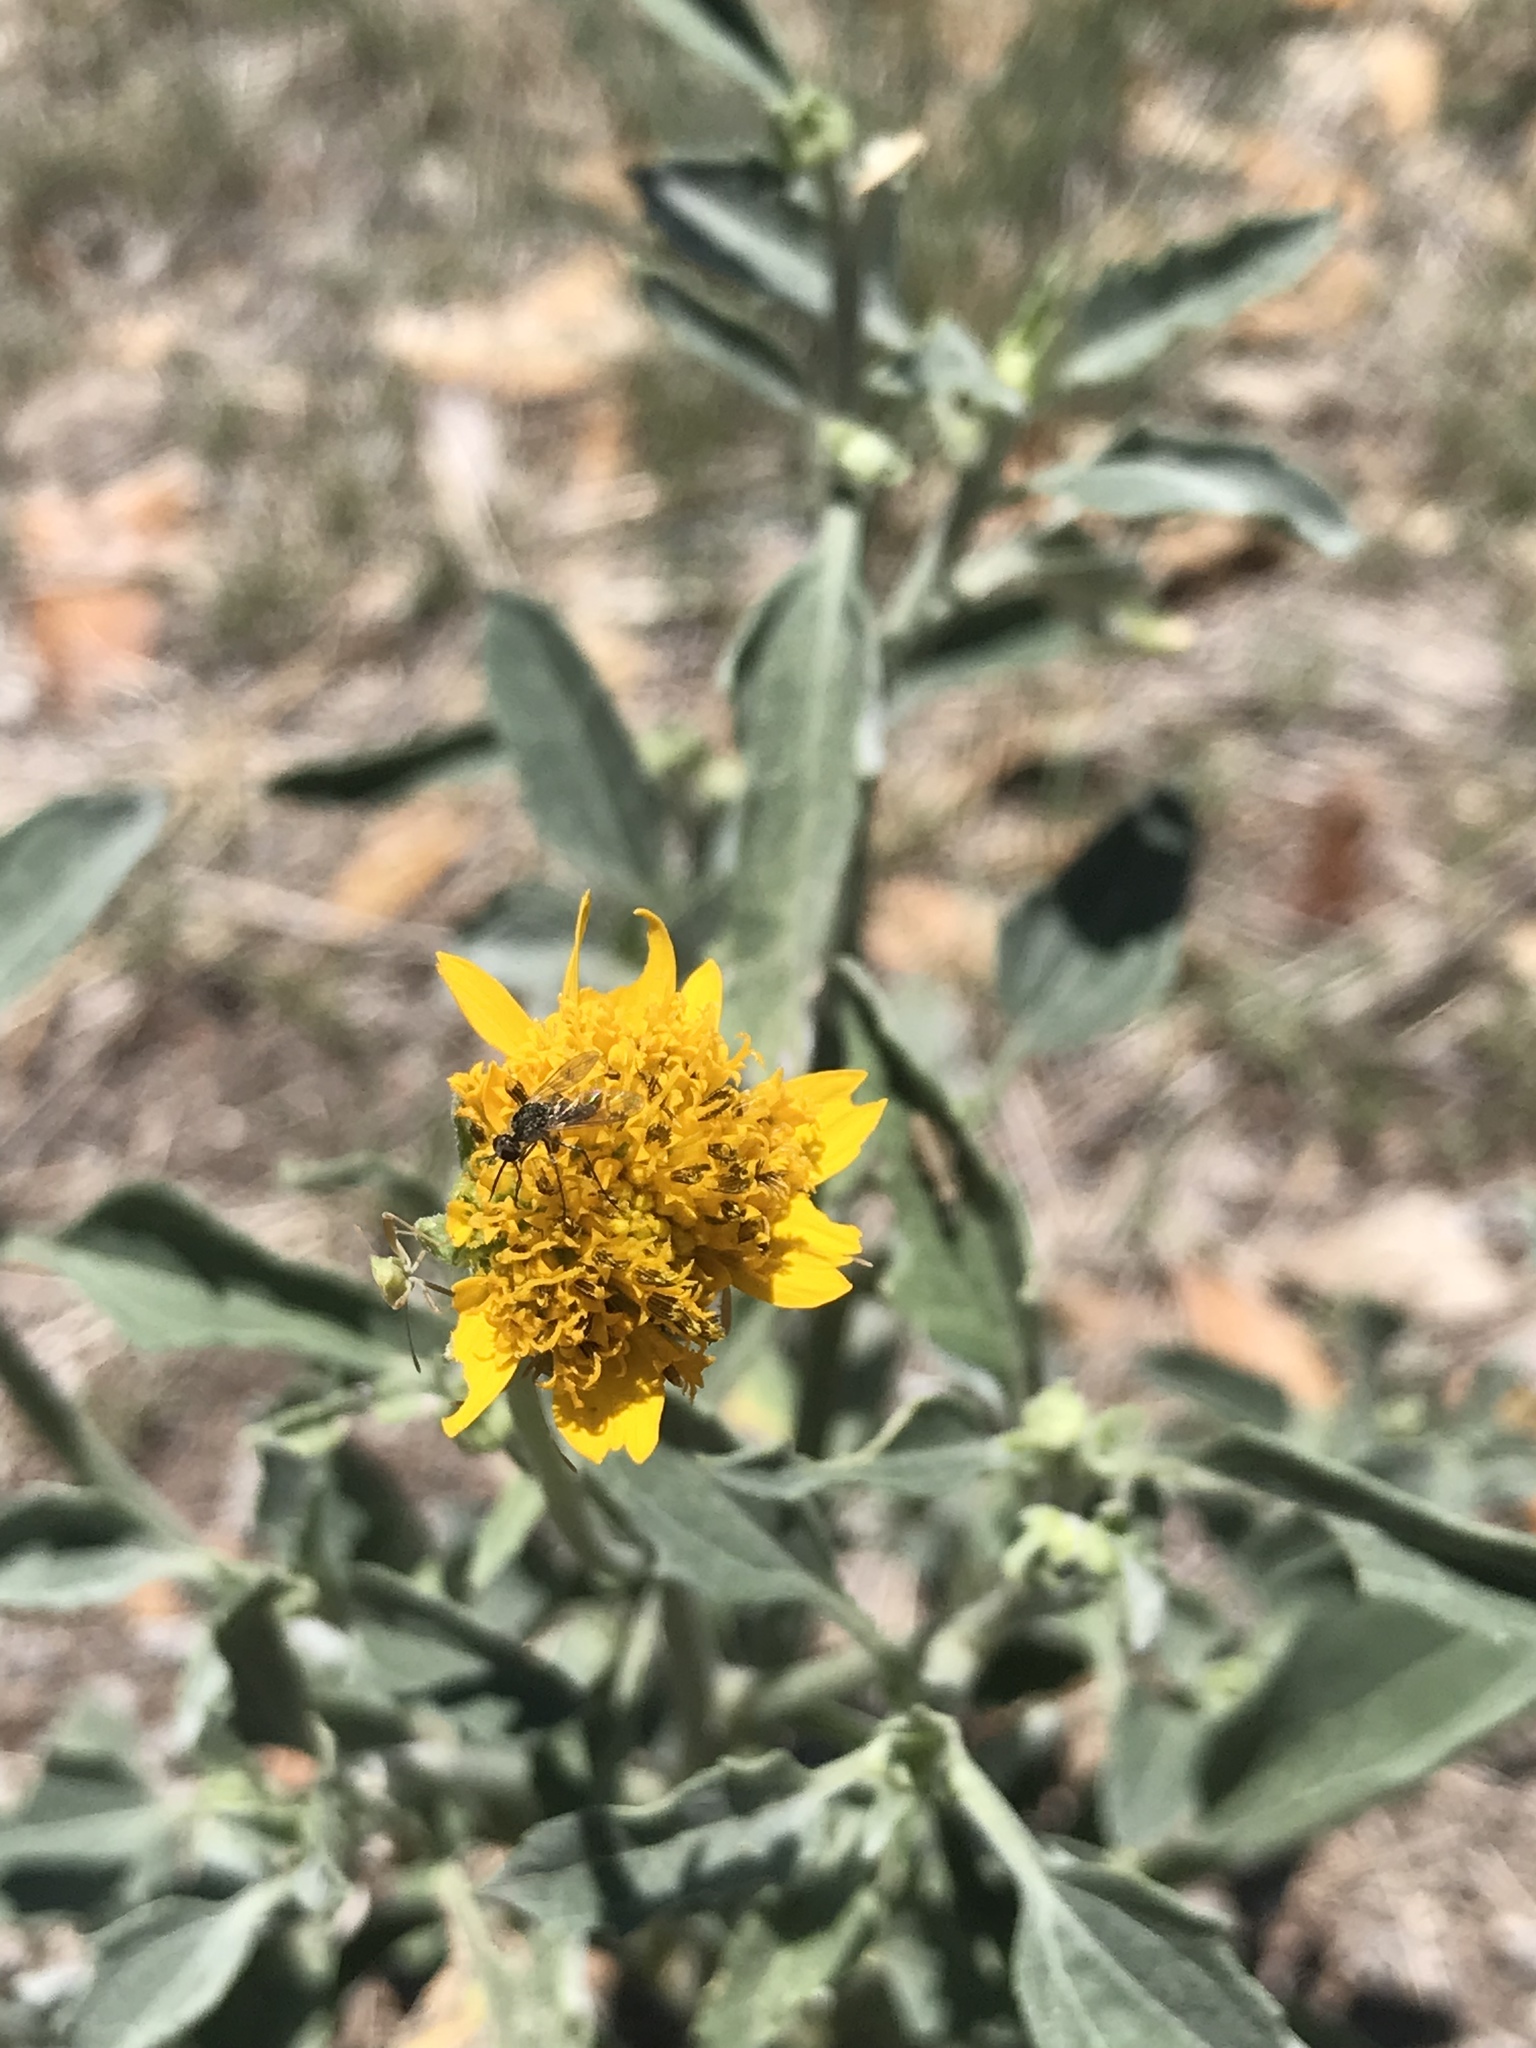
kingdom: Plantae
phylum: Tracheophyta
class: Magnoliopsida
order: Asterales
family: Asteraceae
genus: Verbesina
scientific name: Verbesina encelioides
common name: Golden crownbeard
